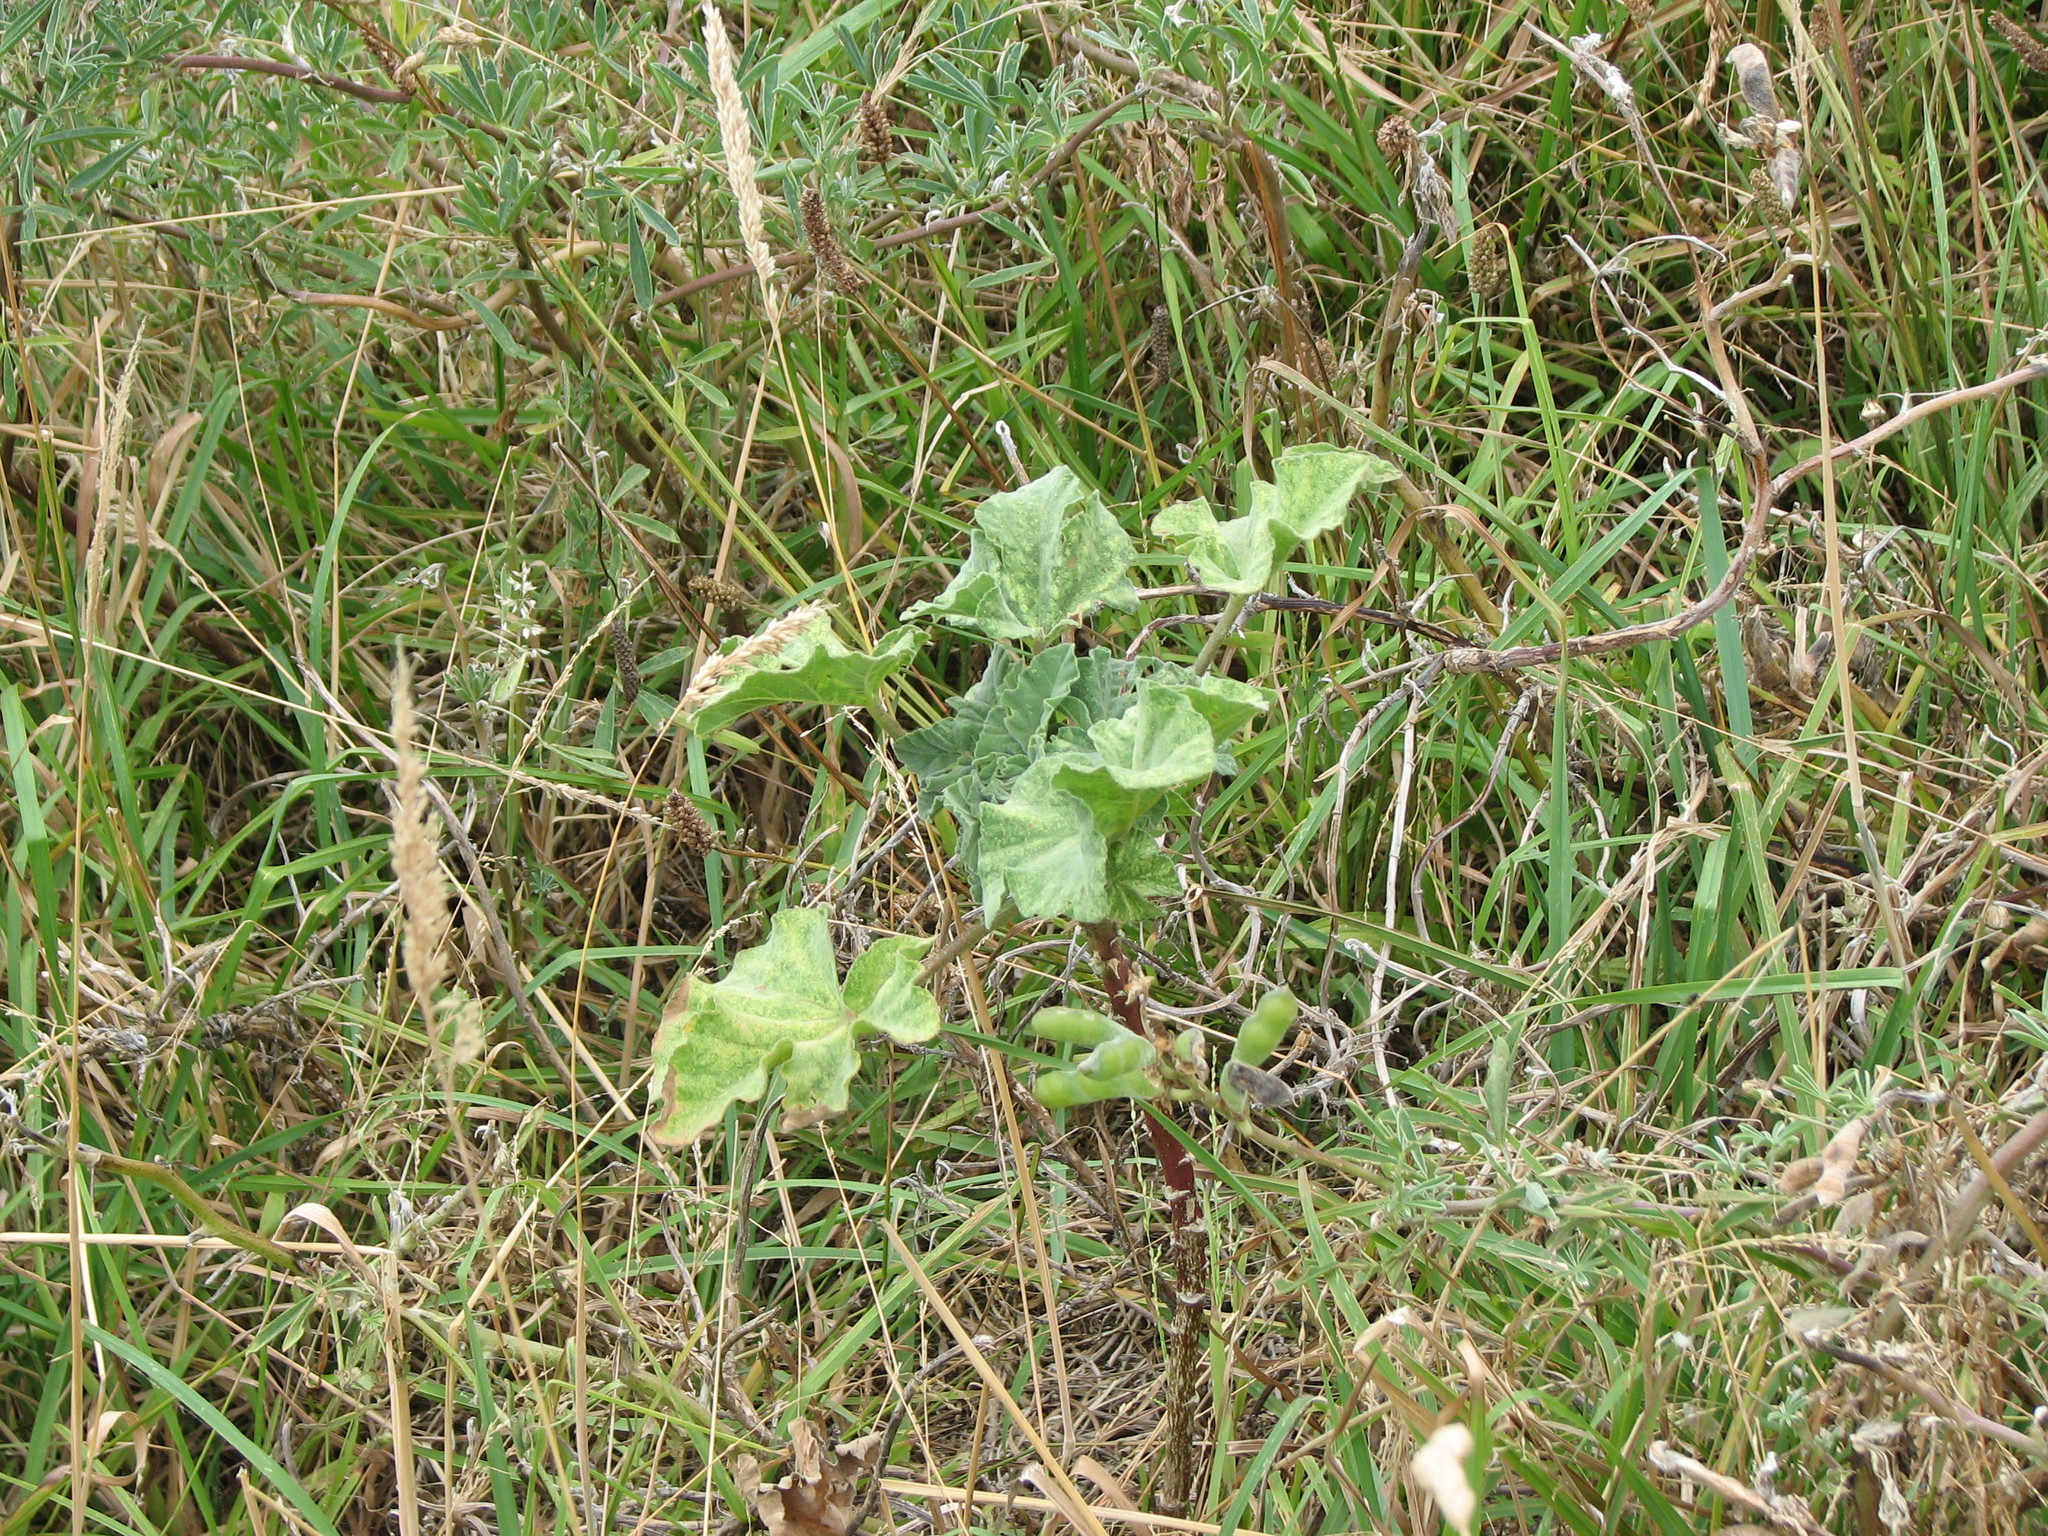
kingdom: Plantae
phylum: Tracheophyta
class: Magnoliopsida
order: Malvales
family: Malvaceae
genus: Malva
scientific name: Malva arborea
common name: Tree mallow
